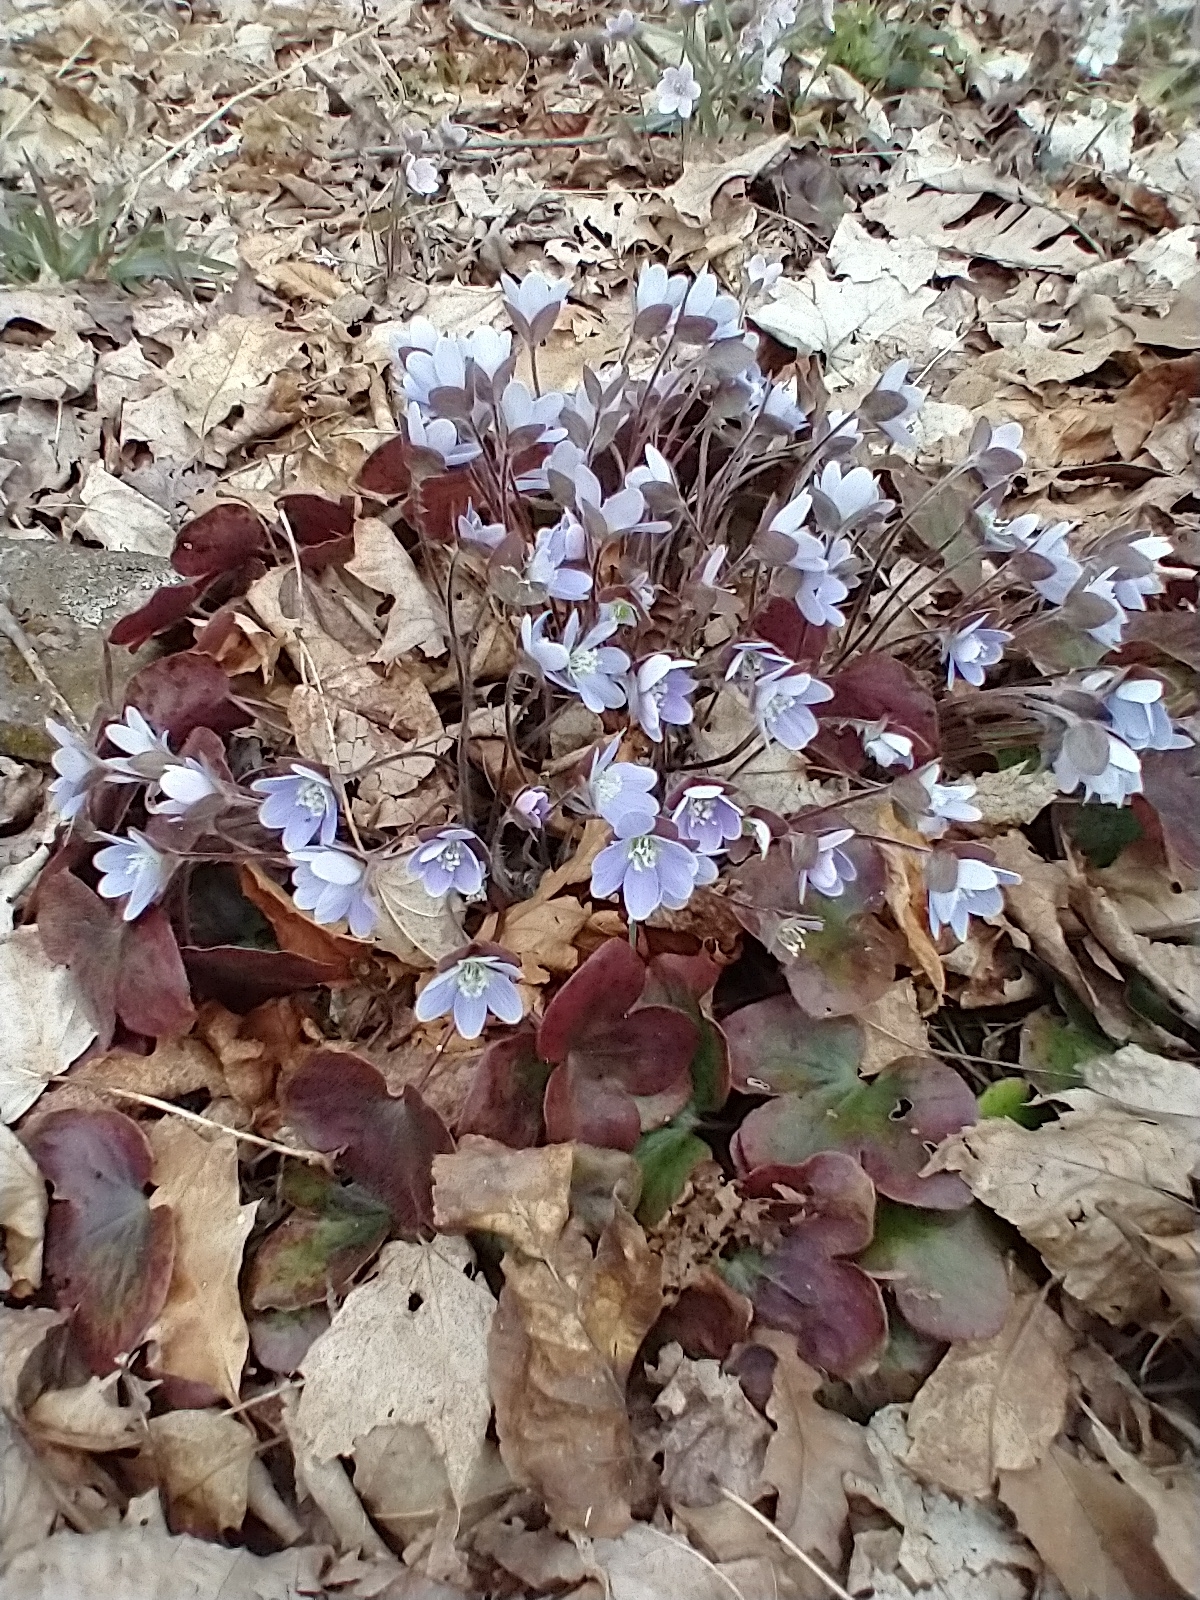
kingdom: Plantae
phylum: Tracheophyta
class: Magnoliopsida
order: Ranunculales
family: Ranunculaceae
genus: Hepatica
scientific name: Hepatica americana
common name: American hepatica
